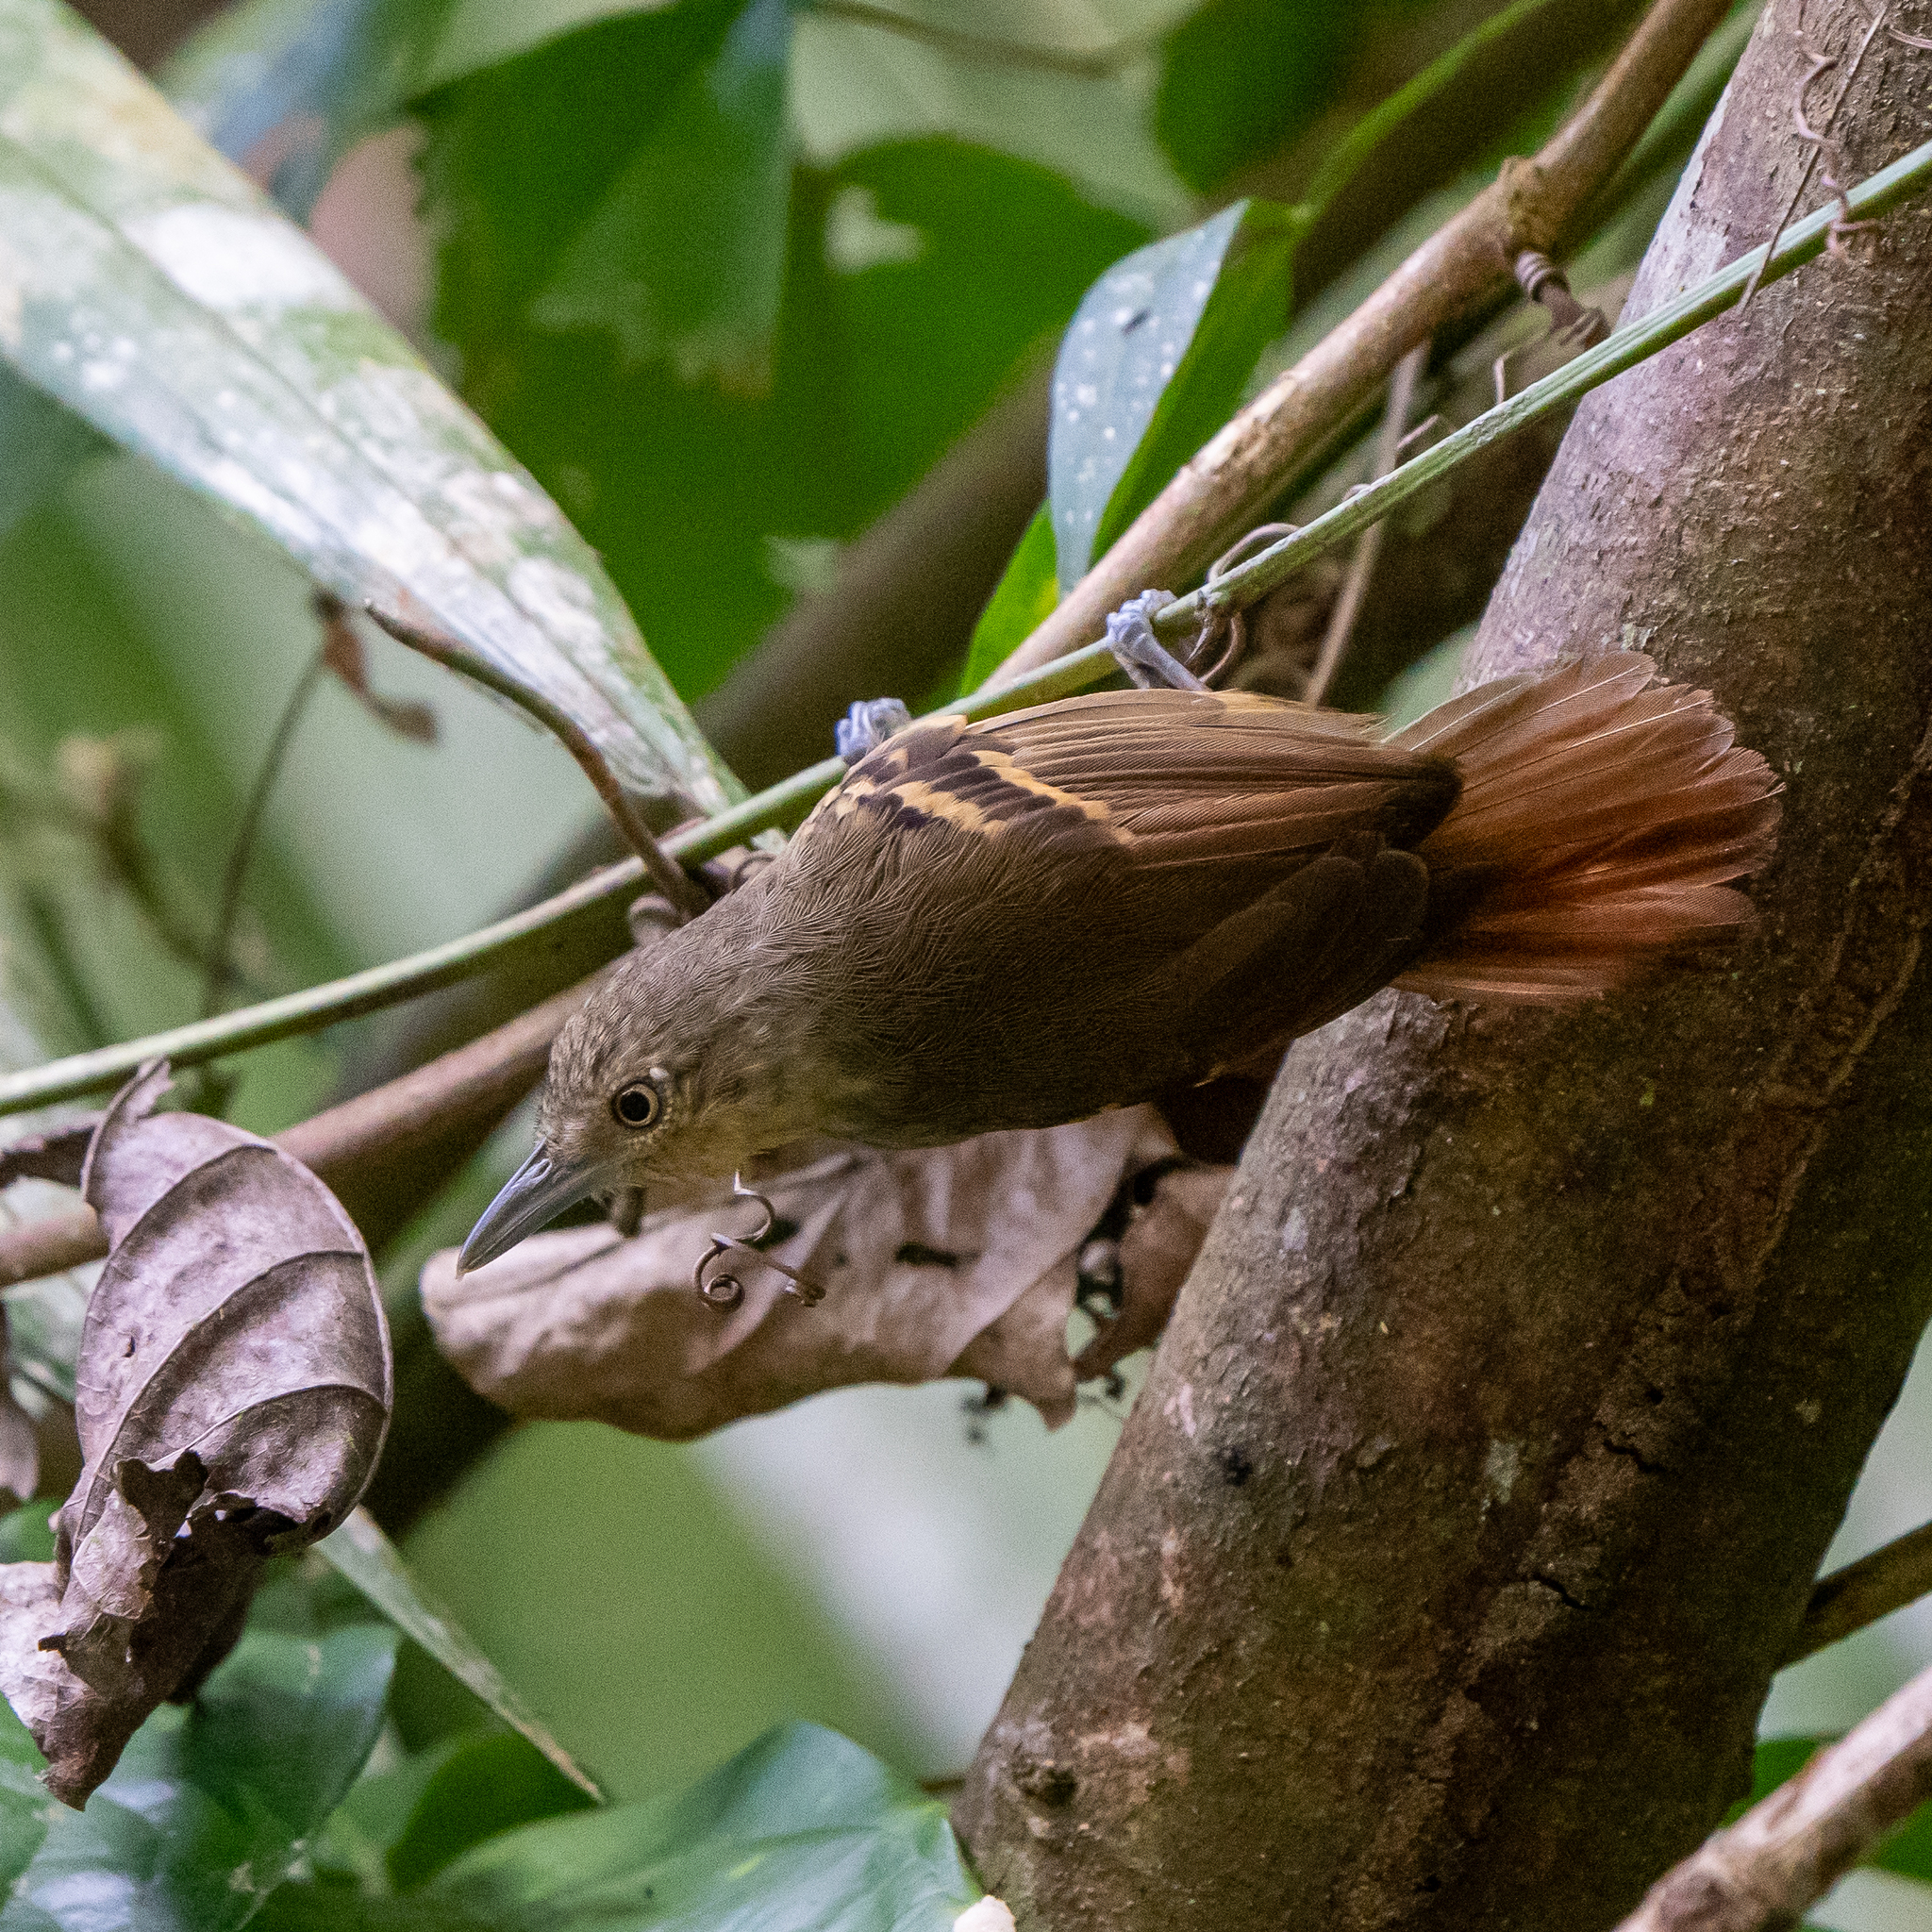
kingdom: Animalia
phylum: Chordata
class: Aves
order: Passeriformes
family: Thamnophilidae
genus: Epinecrophylla
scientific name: Epinecrophylla fulviventris
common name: Checker-throated antwren
